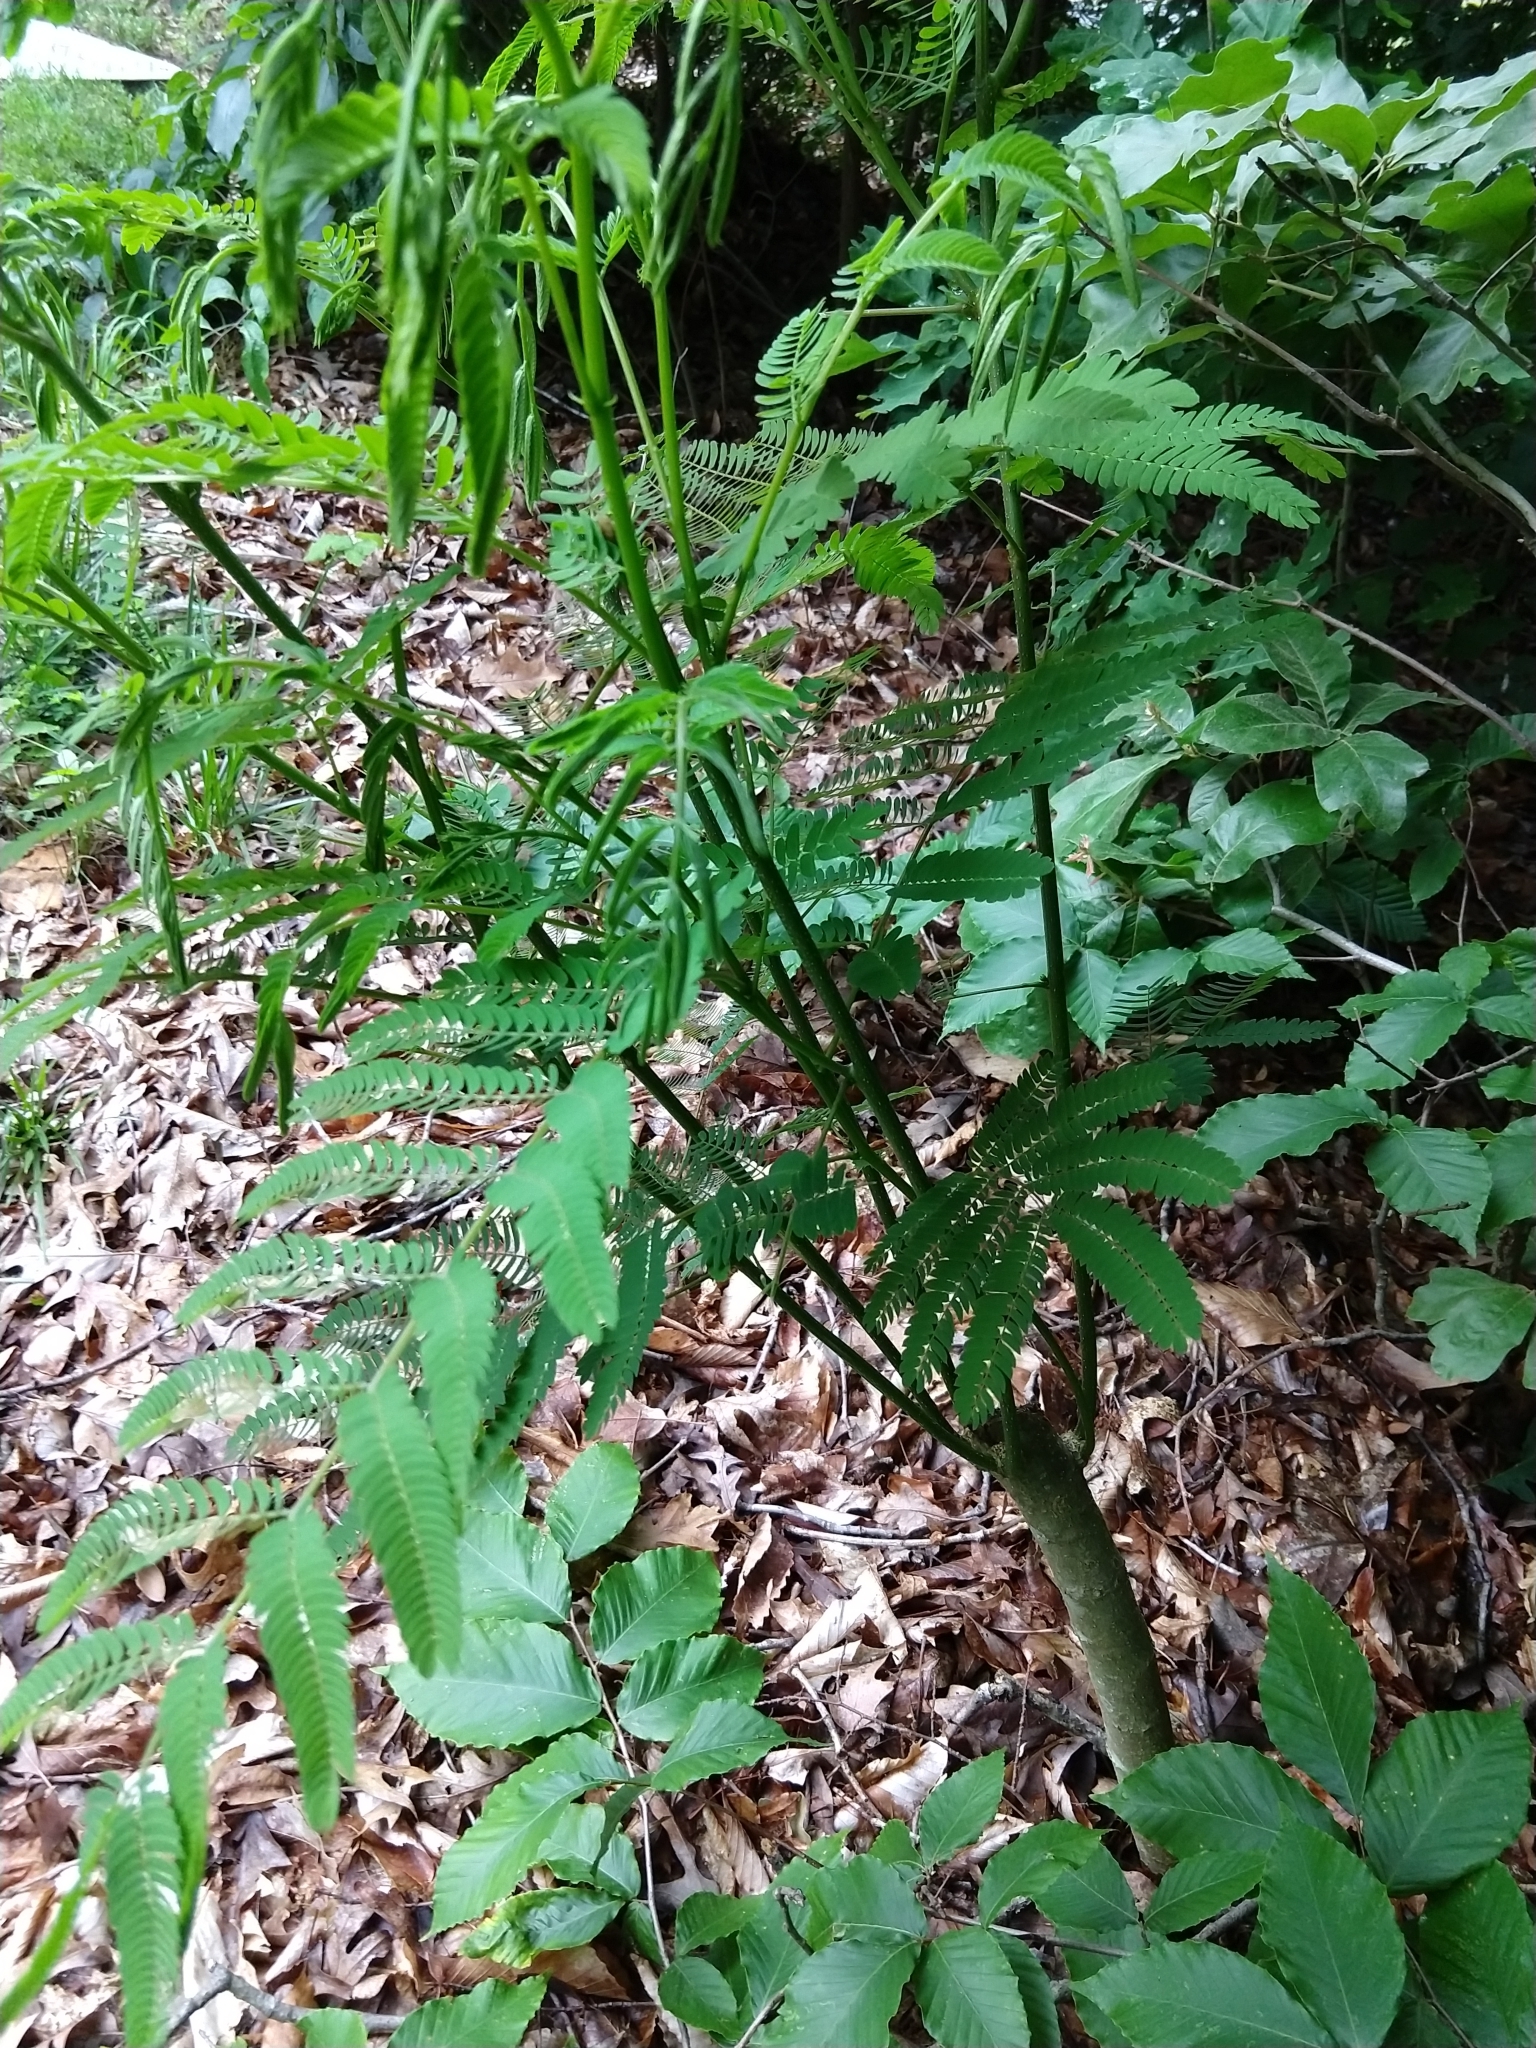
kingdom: Plantae
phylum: Tracheophyta
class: Magnoliopsida
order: Fabales
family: Fabaceae
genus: Albizia
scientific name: Albizia julibrissin
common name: Silktree
